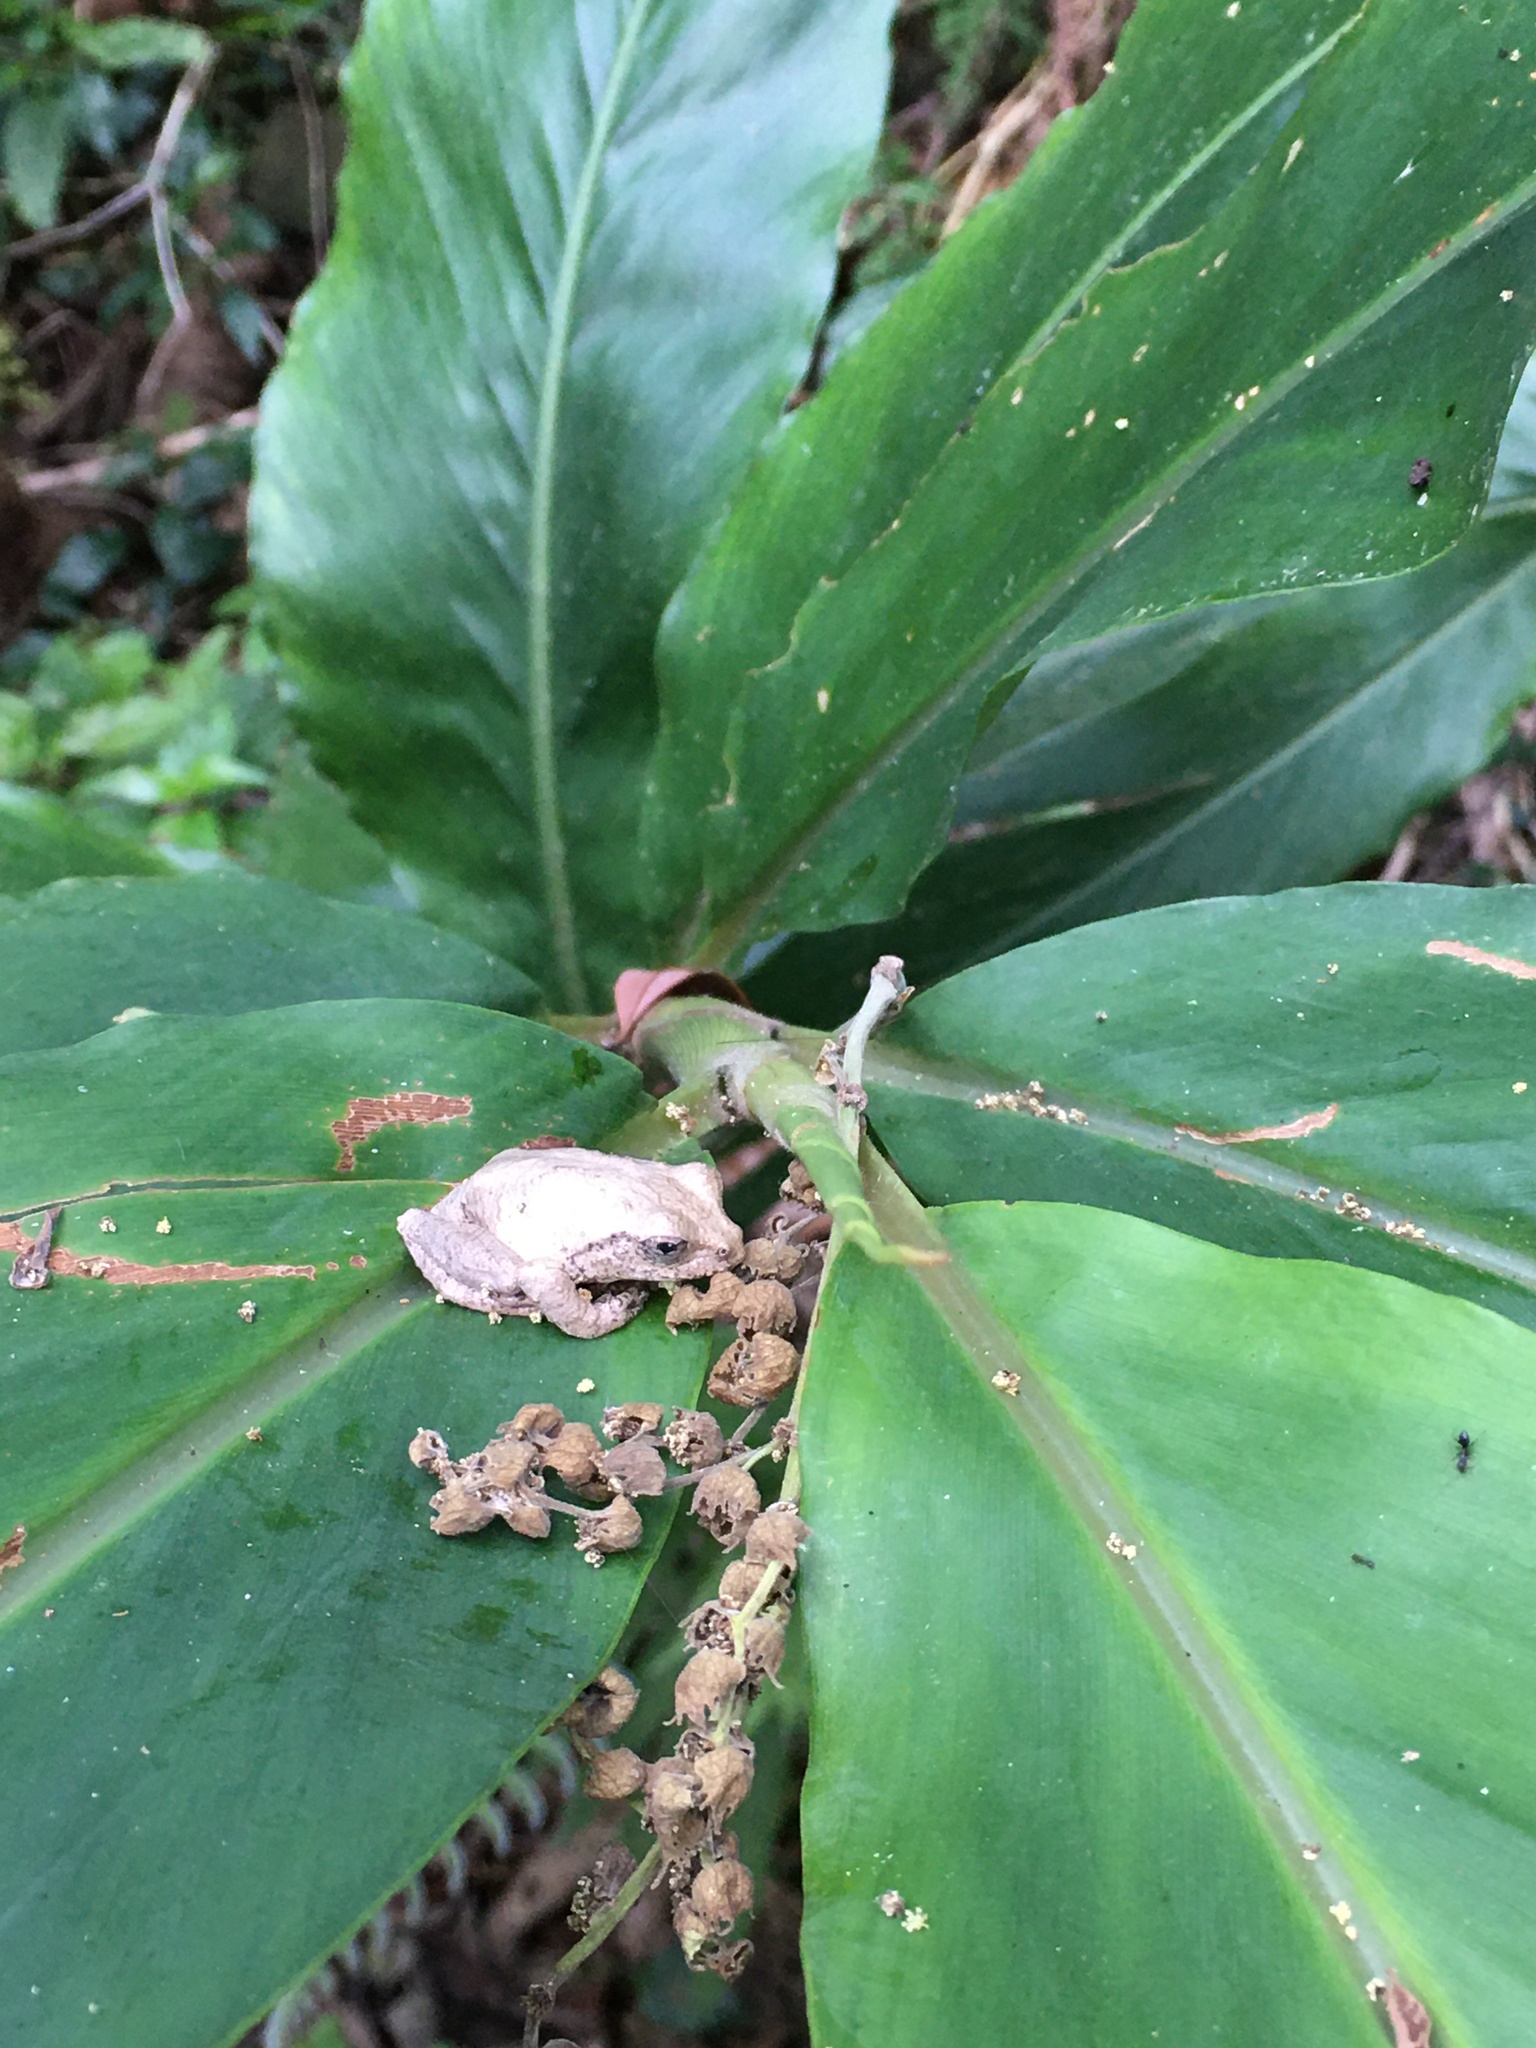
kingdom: Animalia
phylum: Chordata
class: Amphibia
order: Anura
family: Rhacophoridae
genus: Kurixalus
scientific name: Kurixalus idiootocus
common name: Temple treefrog
